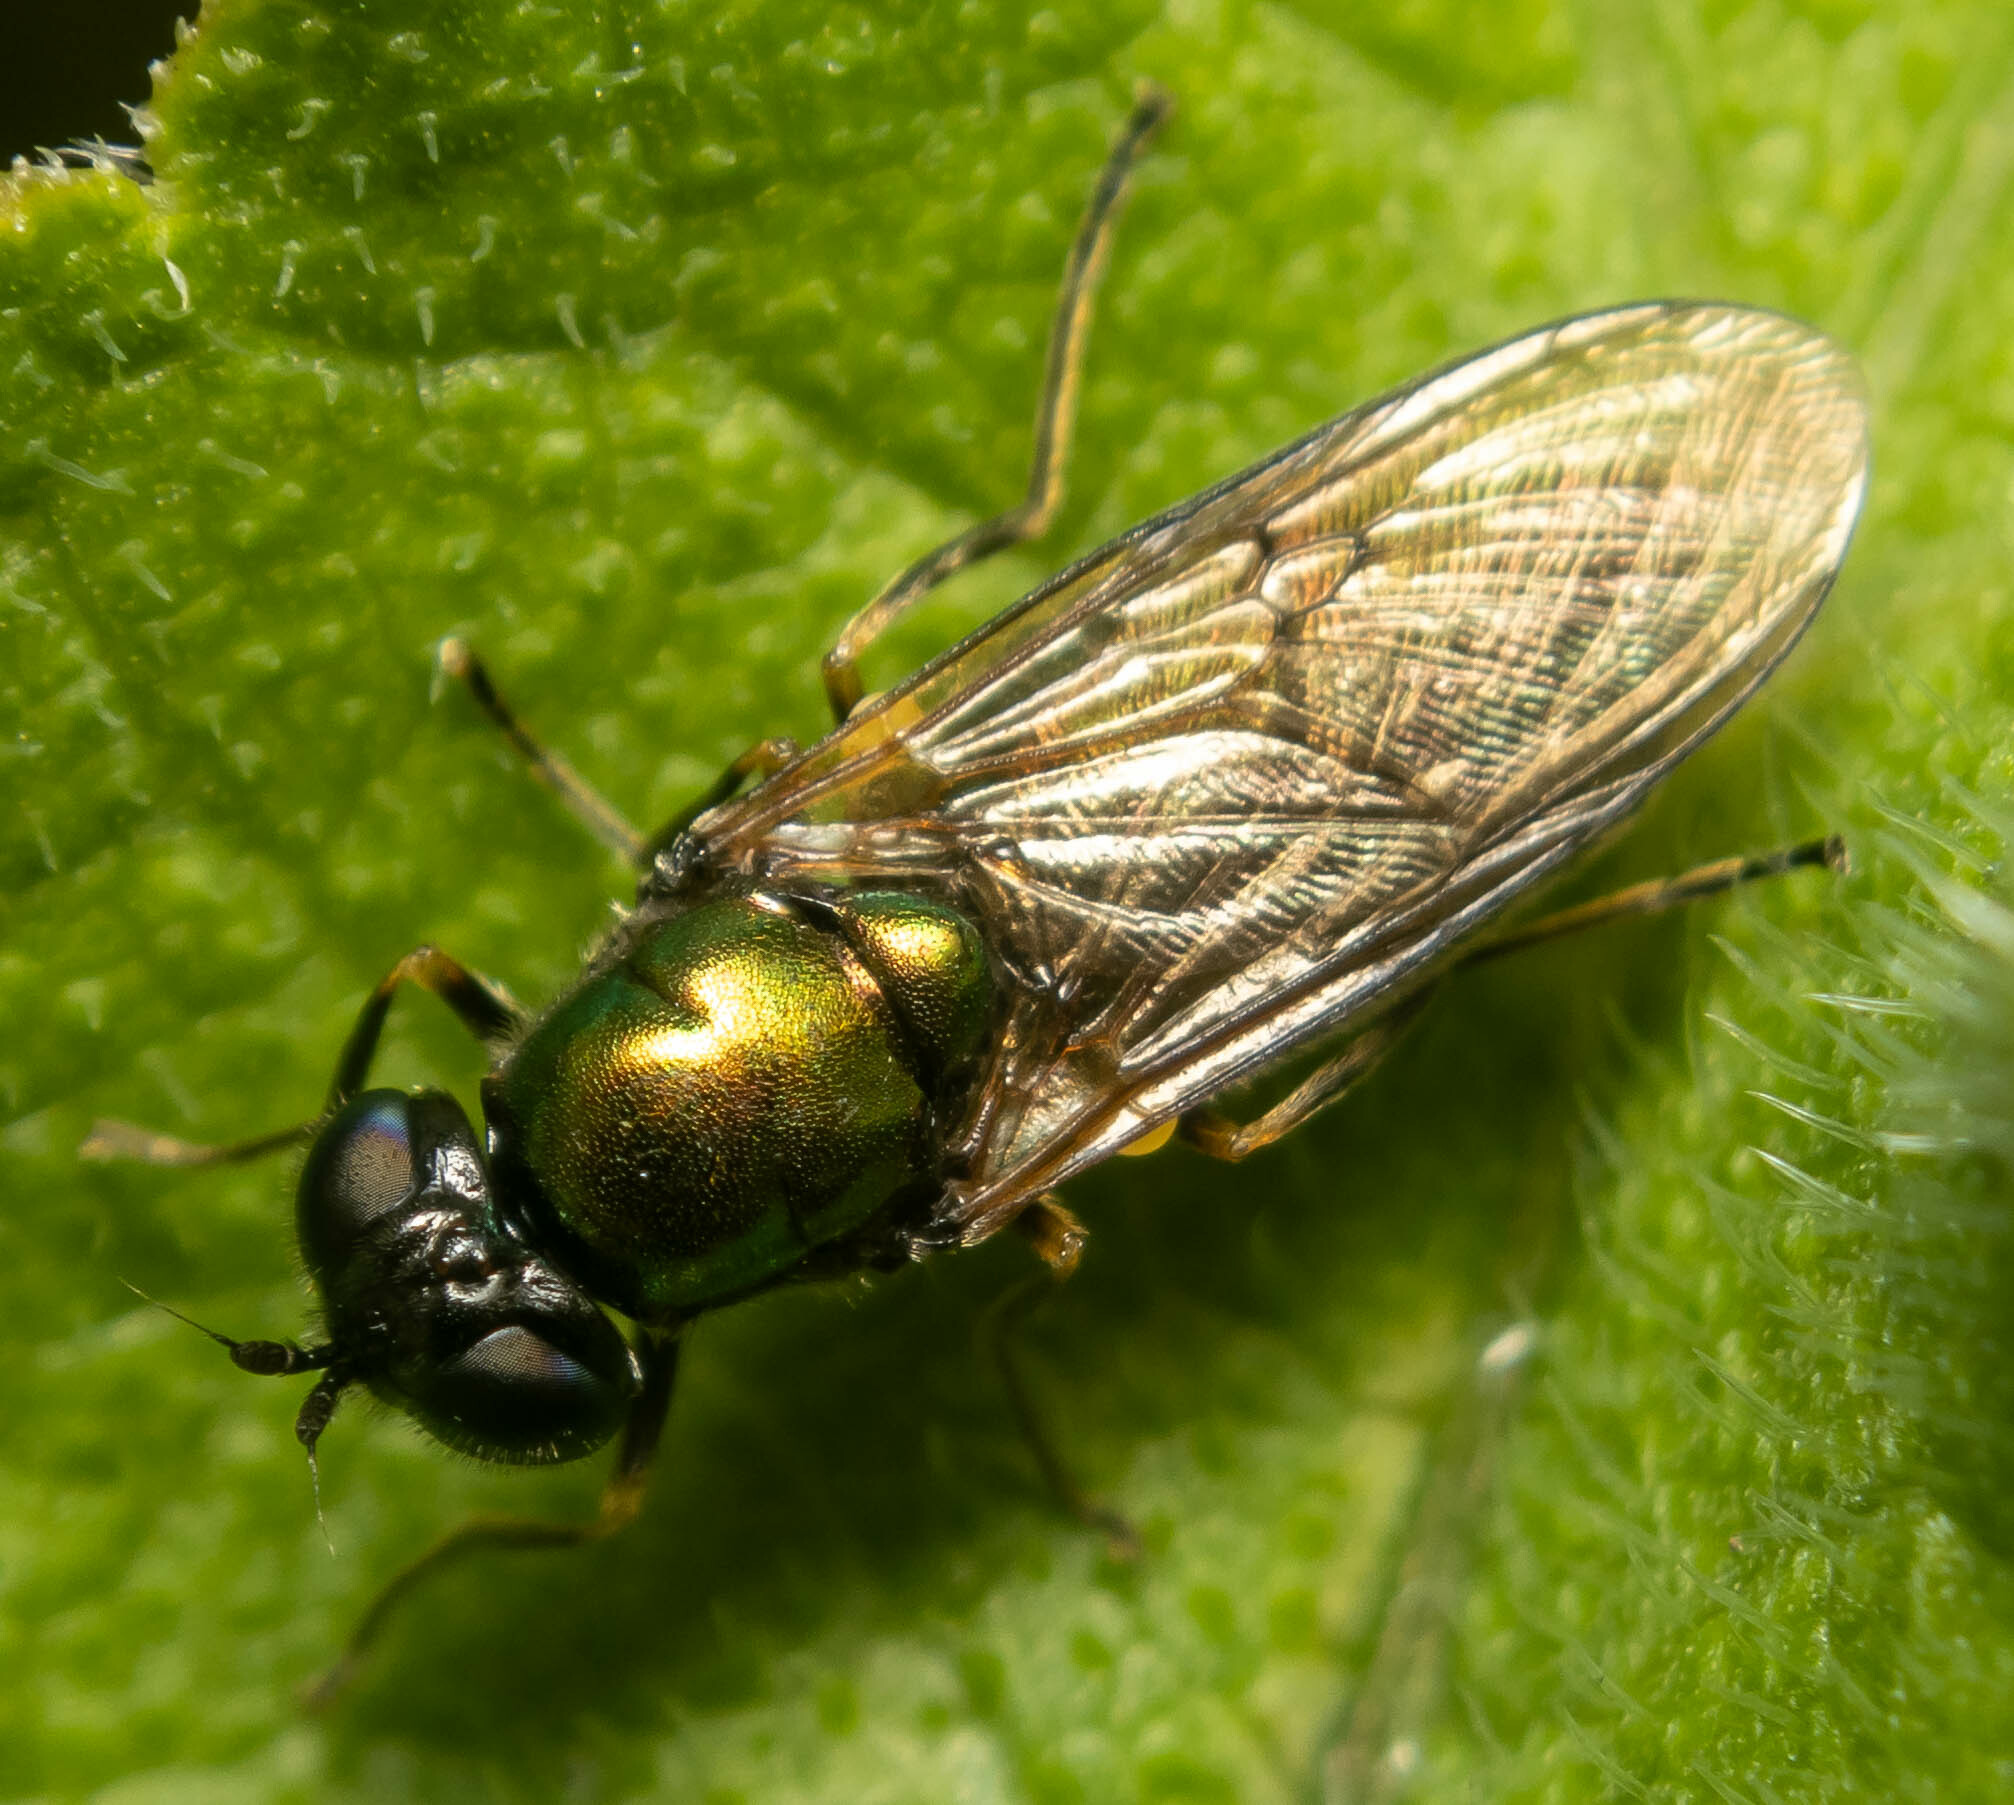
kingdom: Animalia
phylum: Arthropoda
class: Insecta
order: Diptera
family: Stratiomyidae
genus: Chloromyia
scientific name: Chloromyia formosa
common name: Soldier fly
